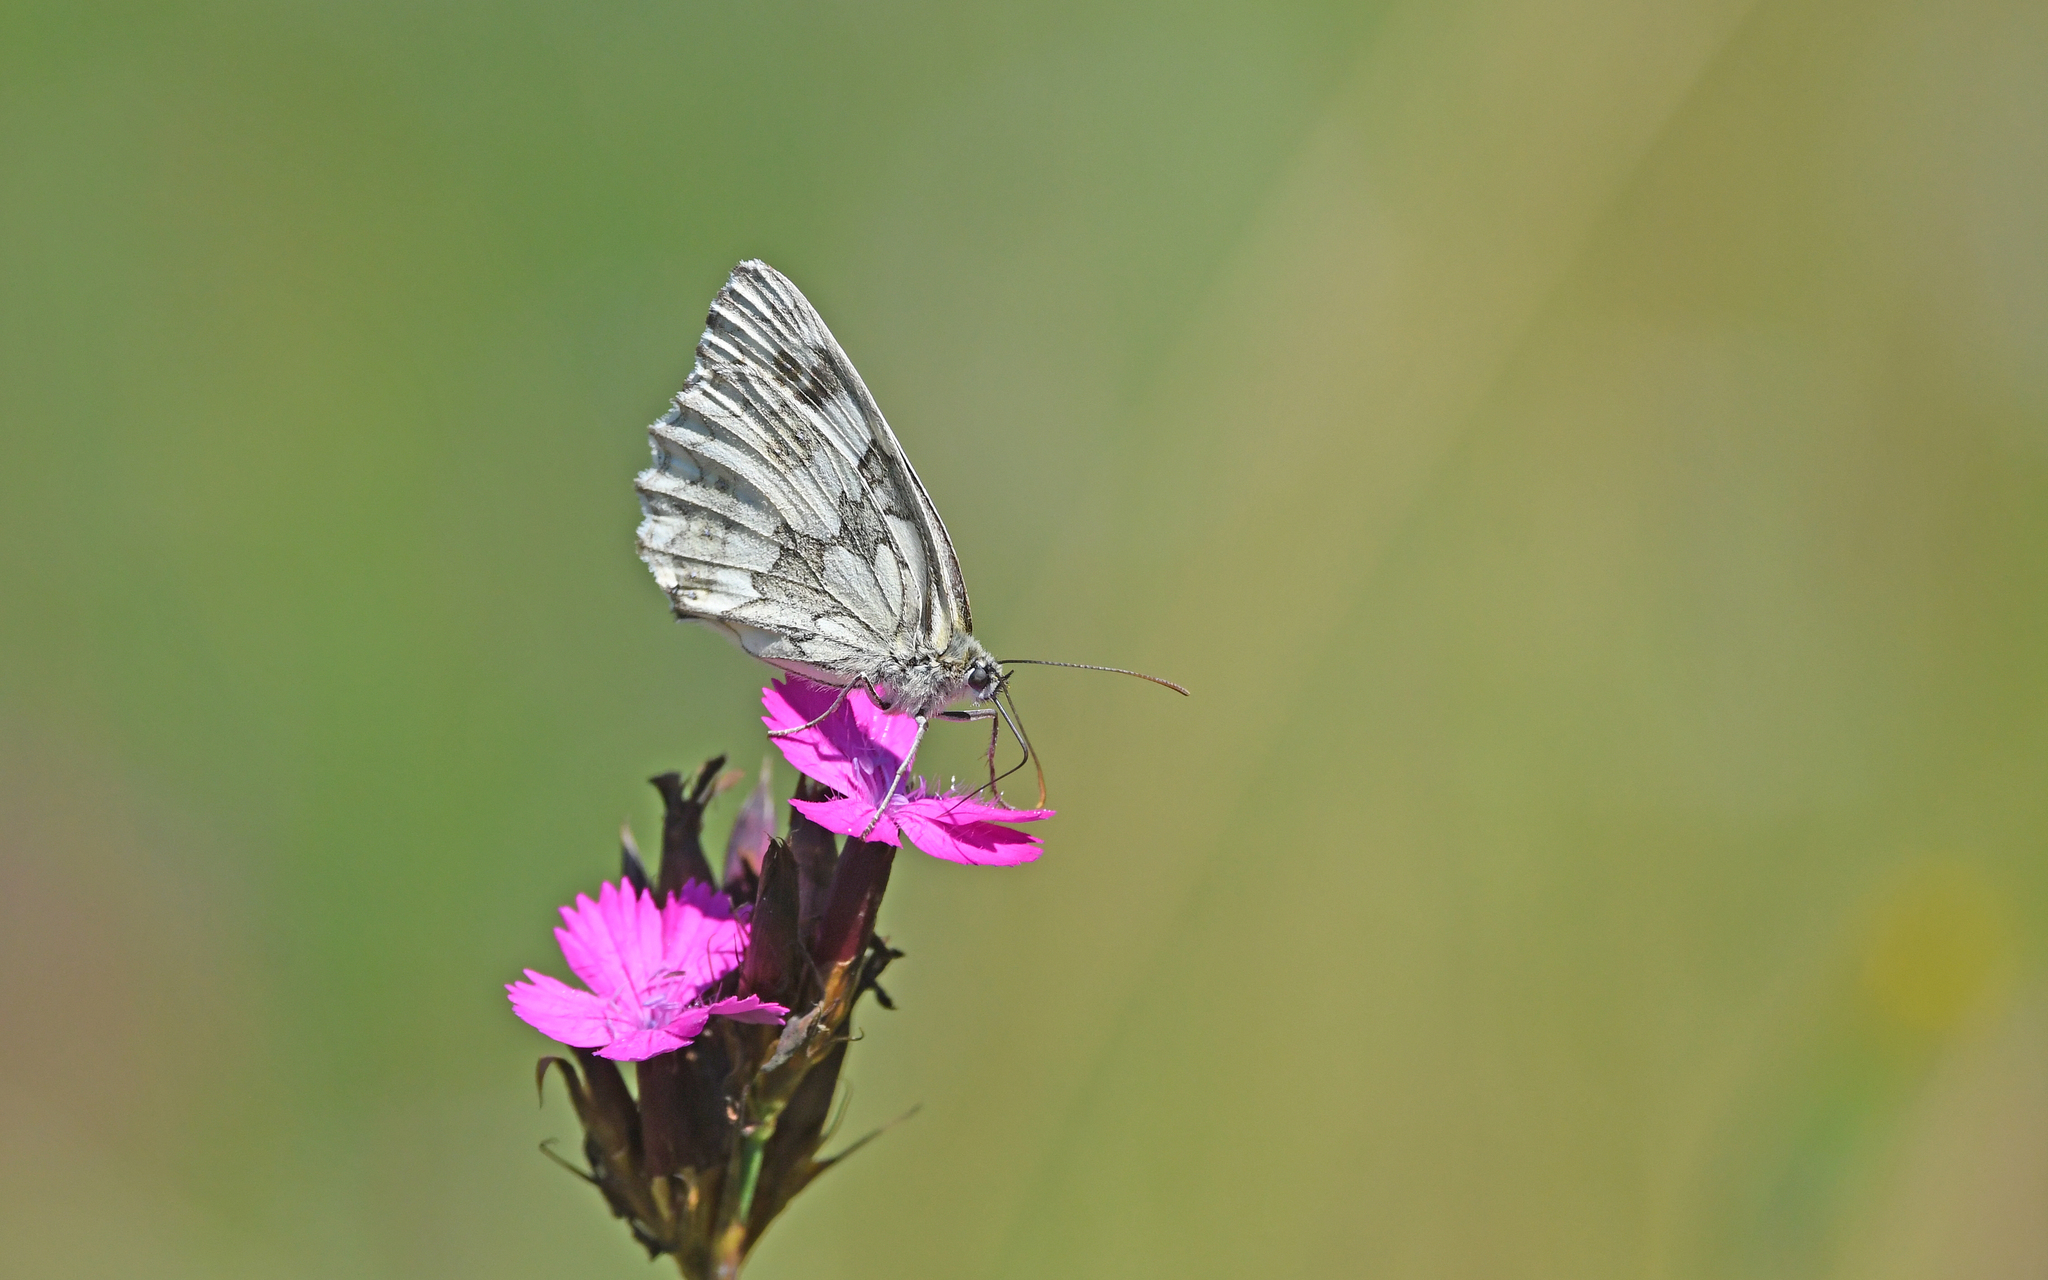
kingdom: Animalia
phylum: Arthropoda
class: Insecta
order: Lepidoptera
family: Nymphalidae
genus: Melanargia
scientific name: Melanargia galathea
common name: Marbled white
